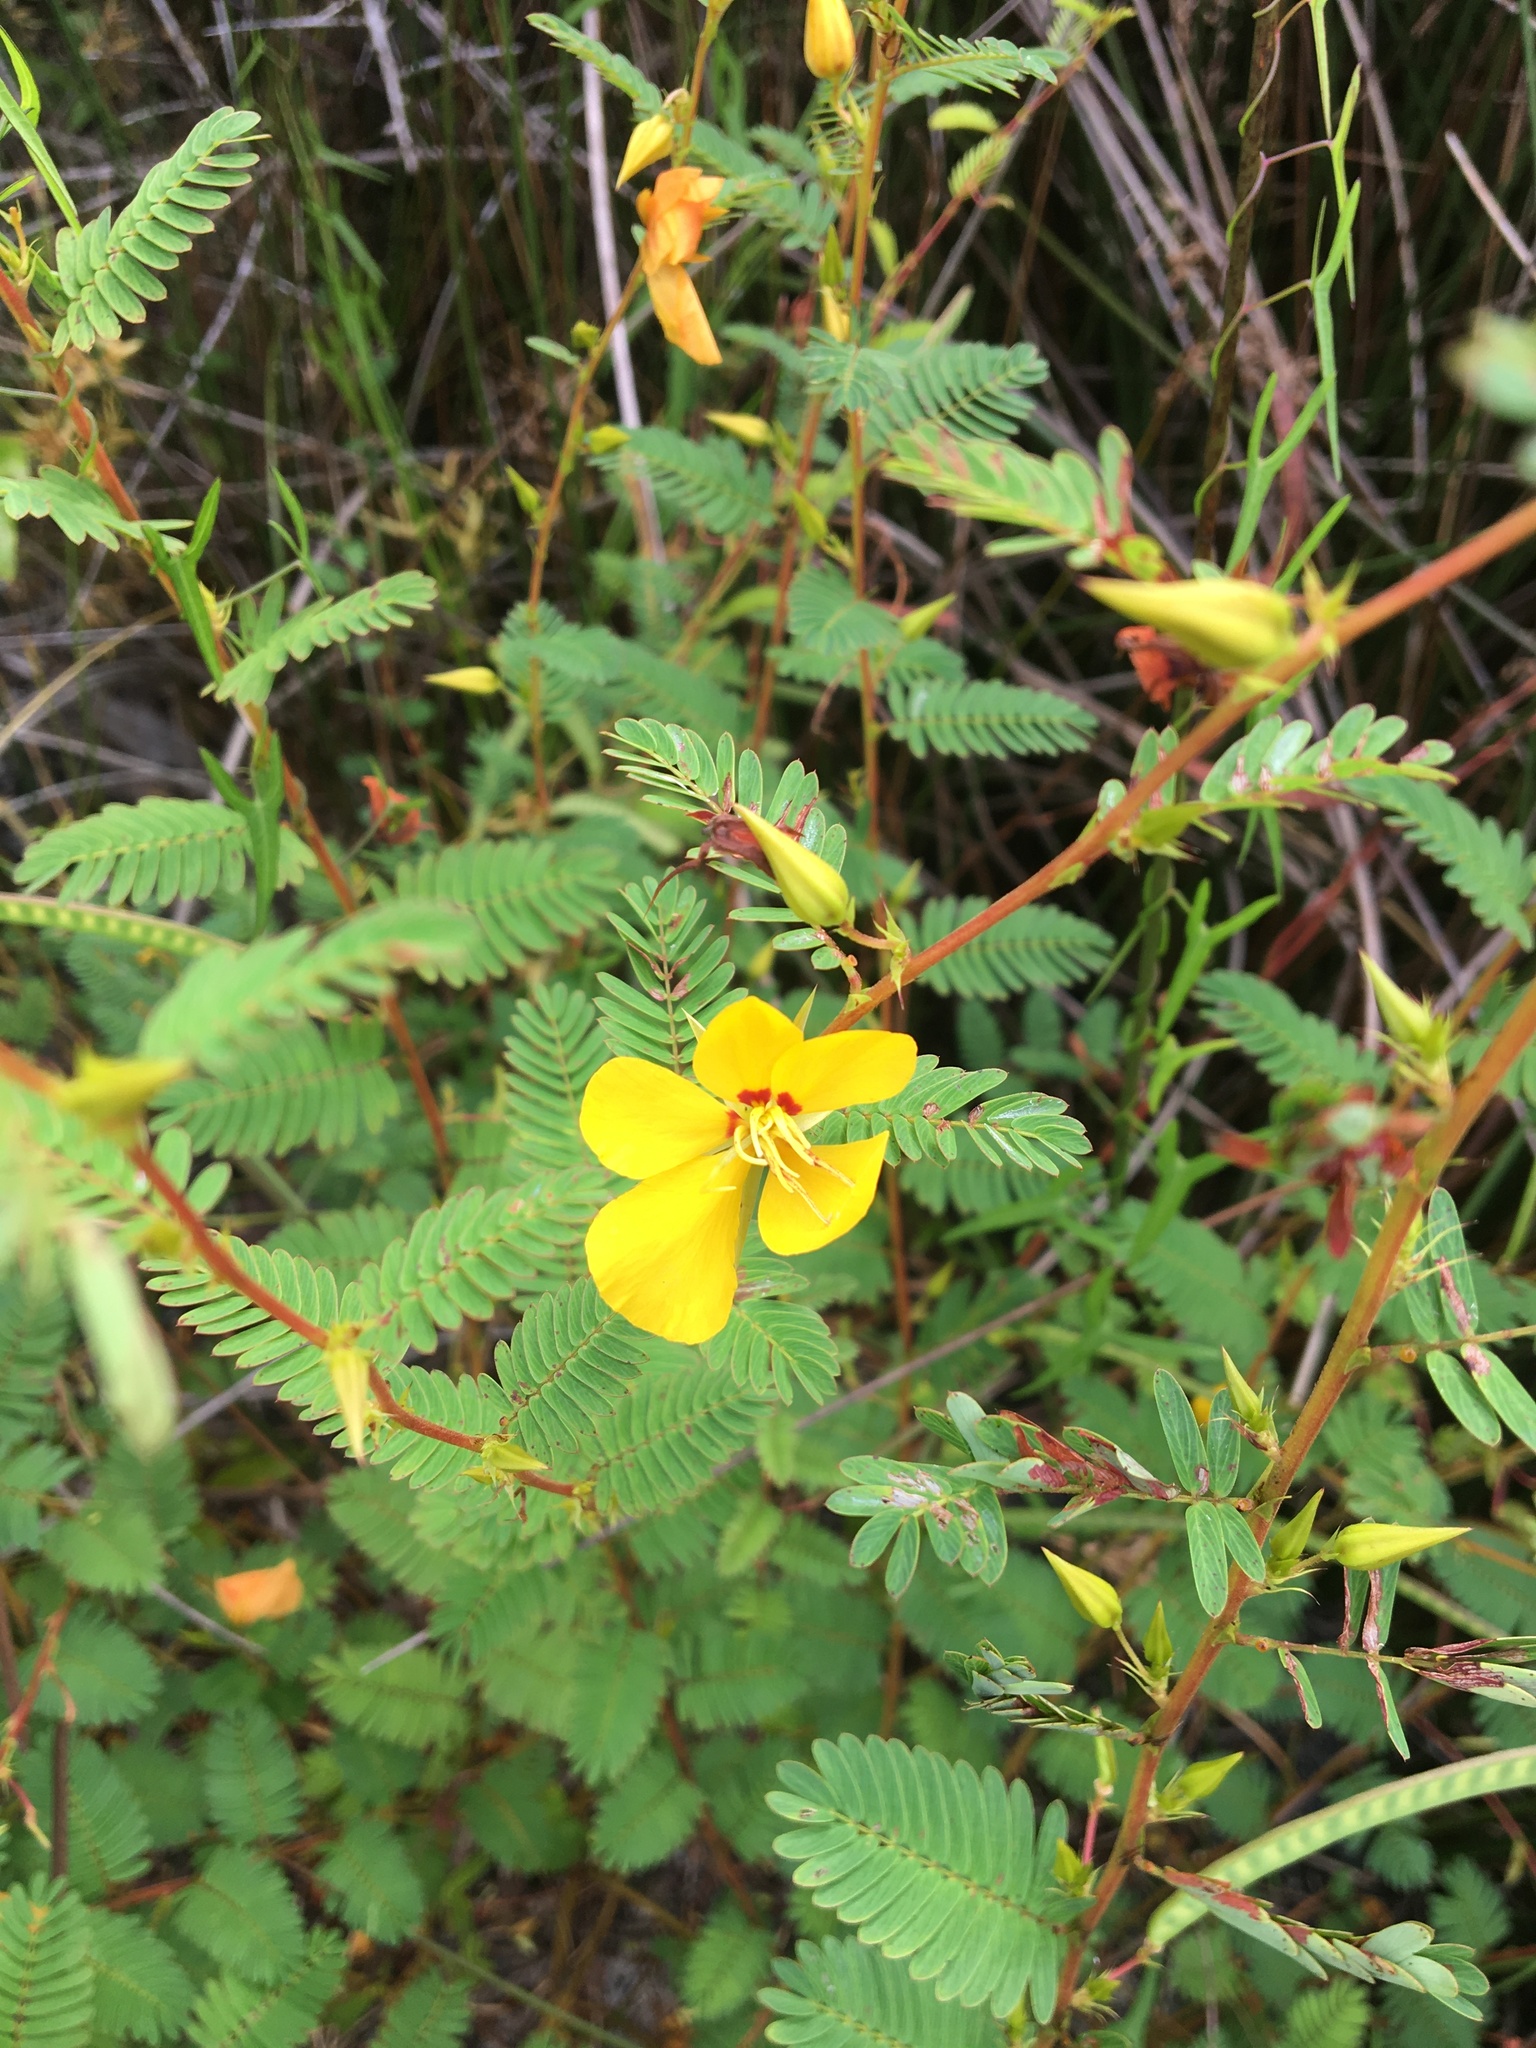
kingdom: Plantae
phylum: Tracheophyta
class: Magnoliopsida
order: Fabales
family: Fabaceae
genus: Chamaecrista
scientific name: Chamaecrista fasciculata
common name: Golden cassia
